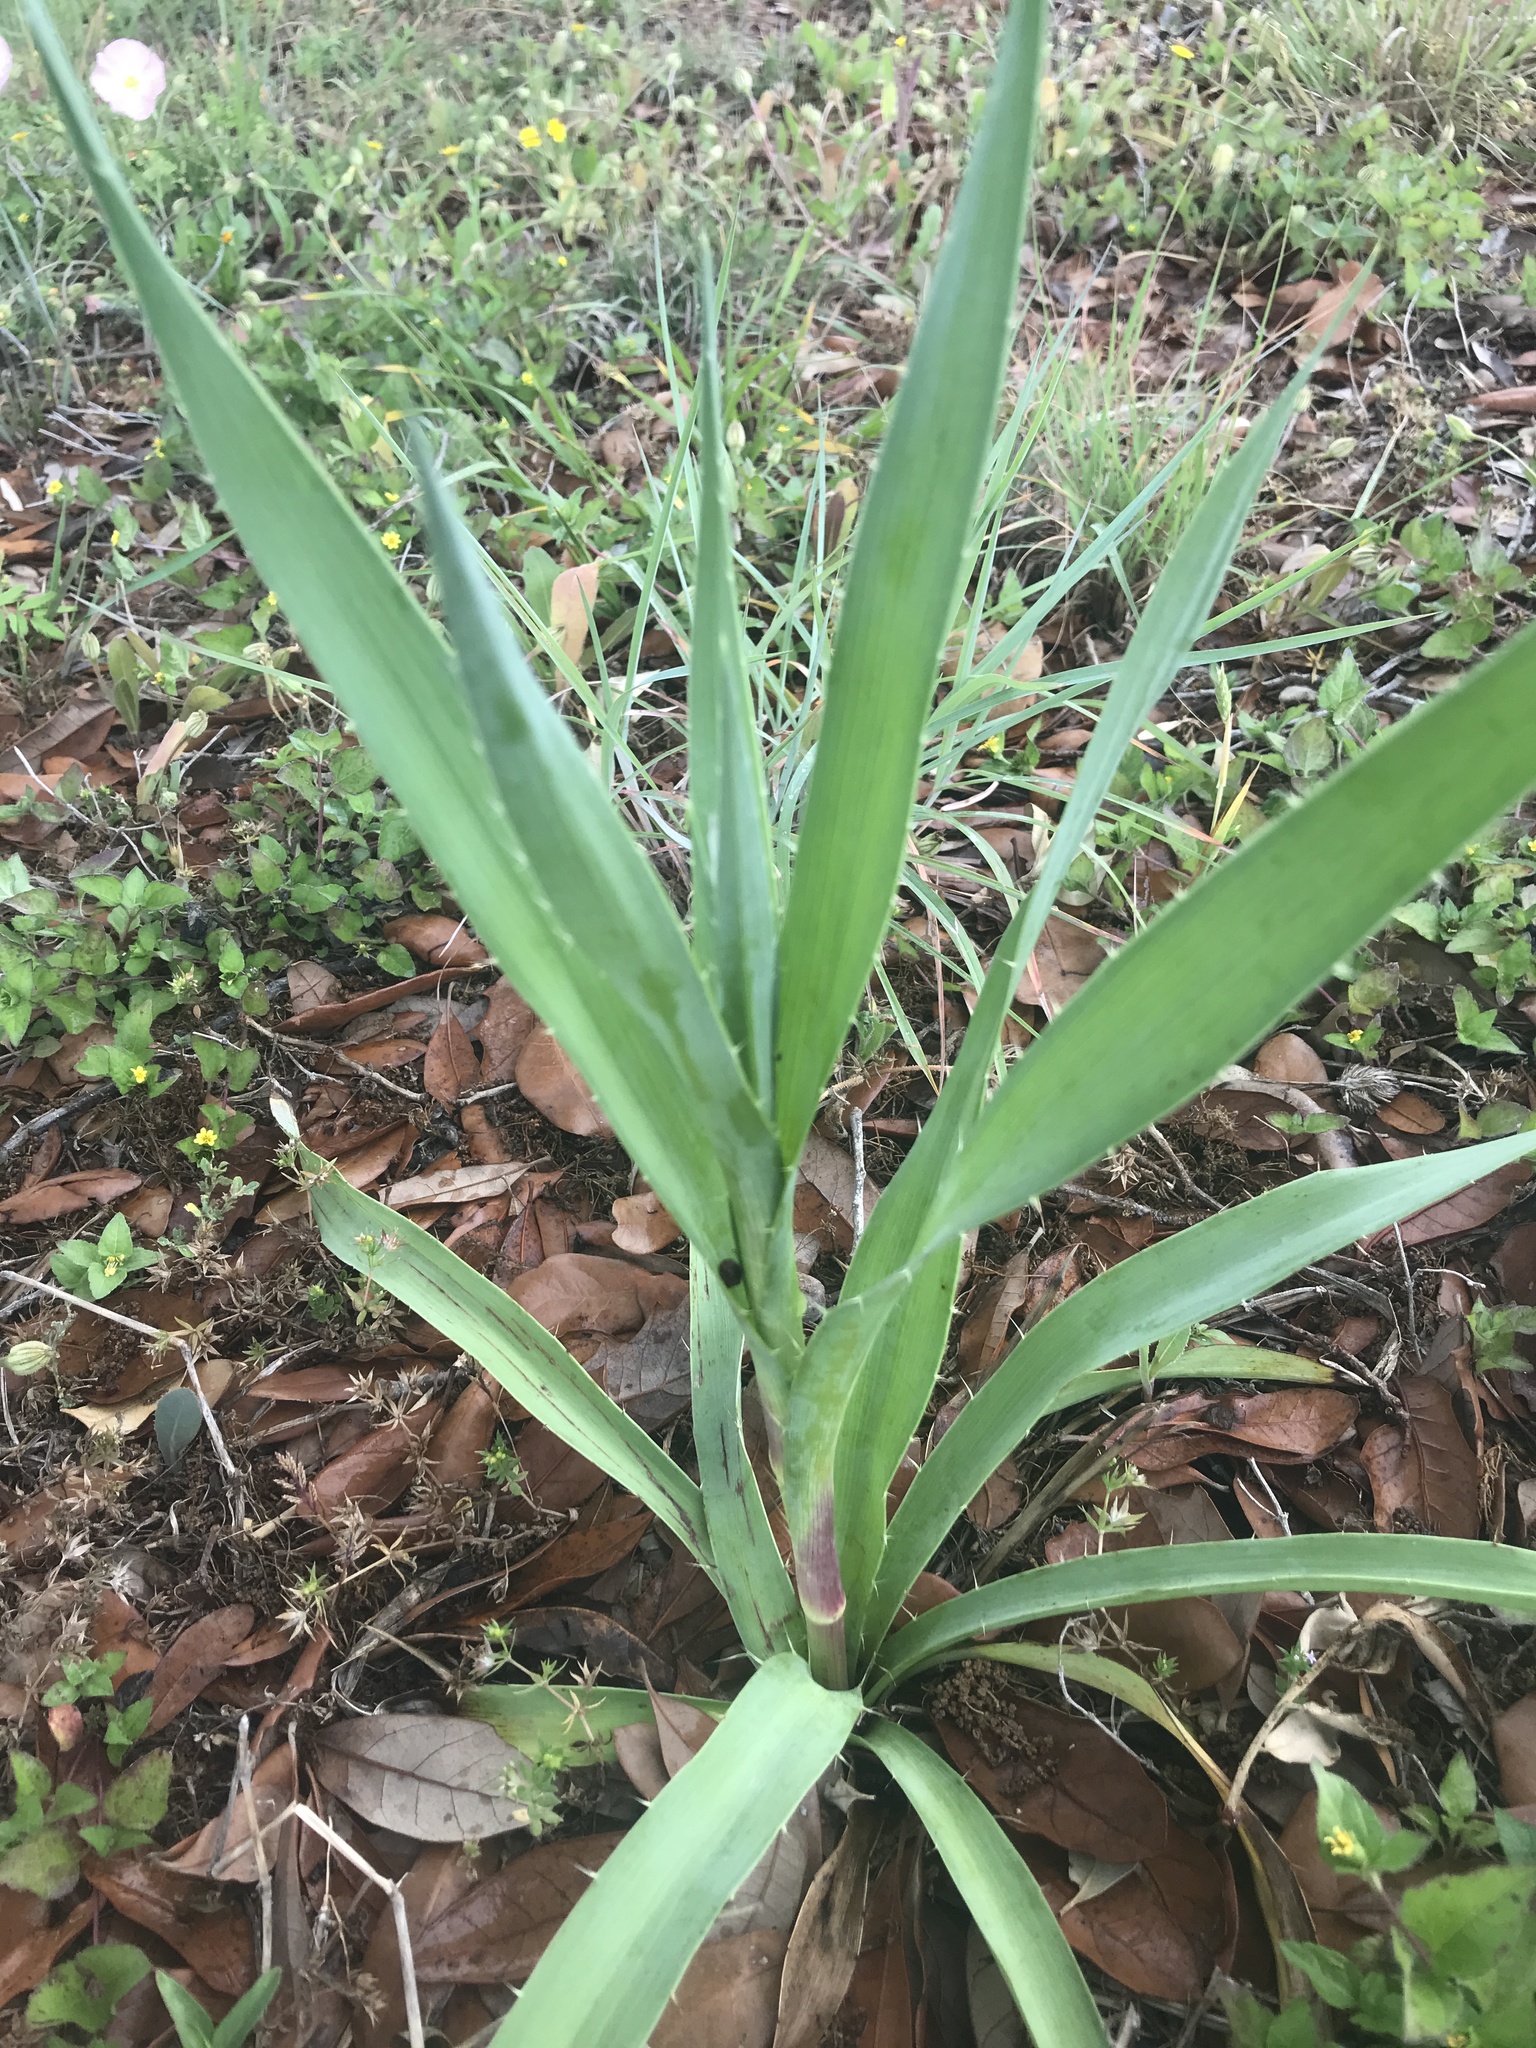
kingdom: Plantae
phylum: Tracheophyta
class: Magnoliopsida
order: Apiales
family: Apiaceae
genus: Eryngium
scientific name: Eryngium yuccifolium
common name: Button eryngo
